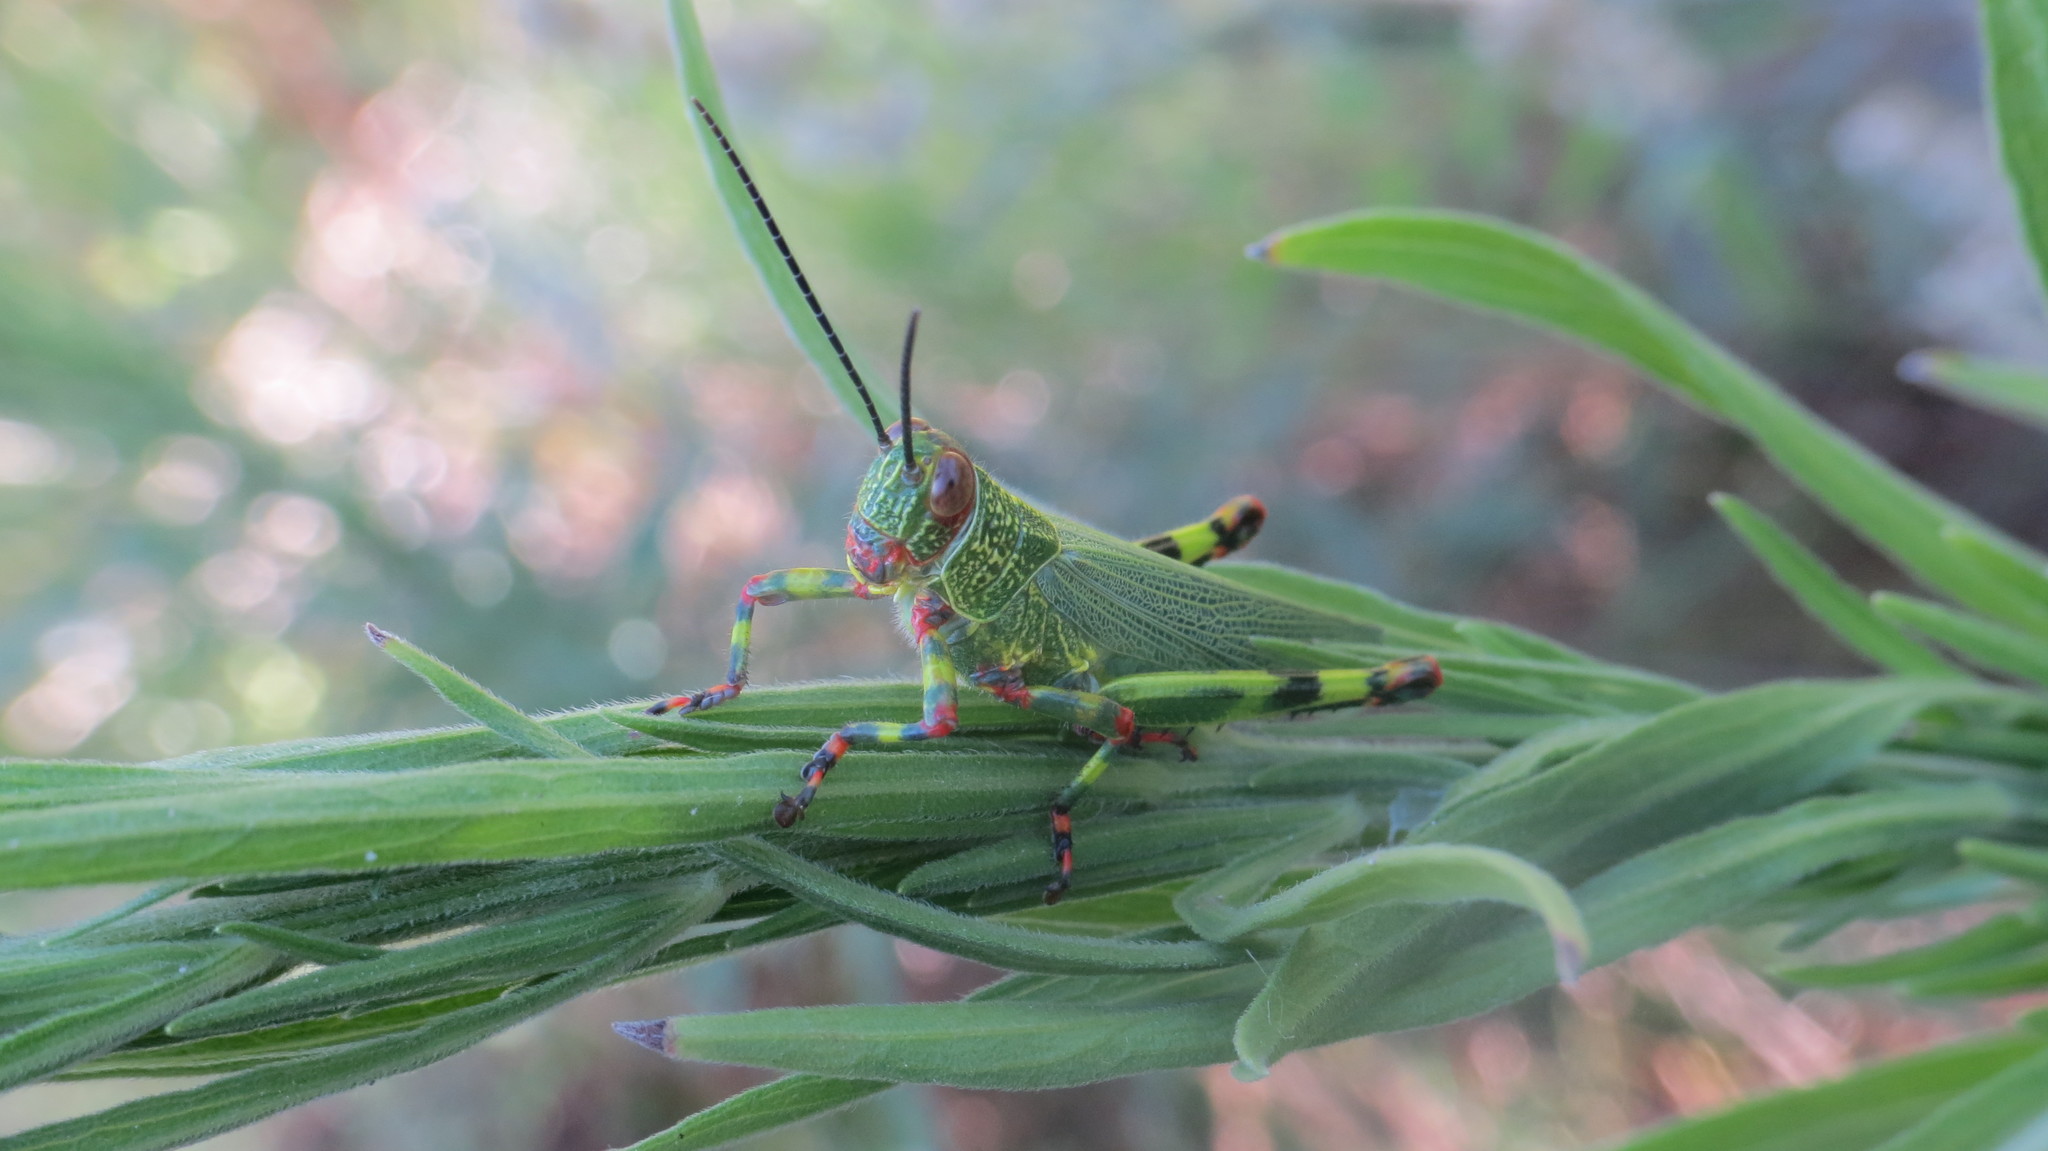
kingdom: Animalia
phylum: Arthropoda
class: Insecta
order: Orthoptera
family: Romaleidae
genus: Zoniopoda
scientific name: Zoniopoda tarsata
